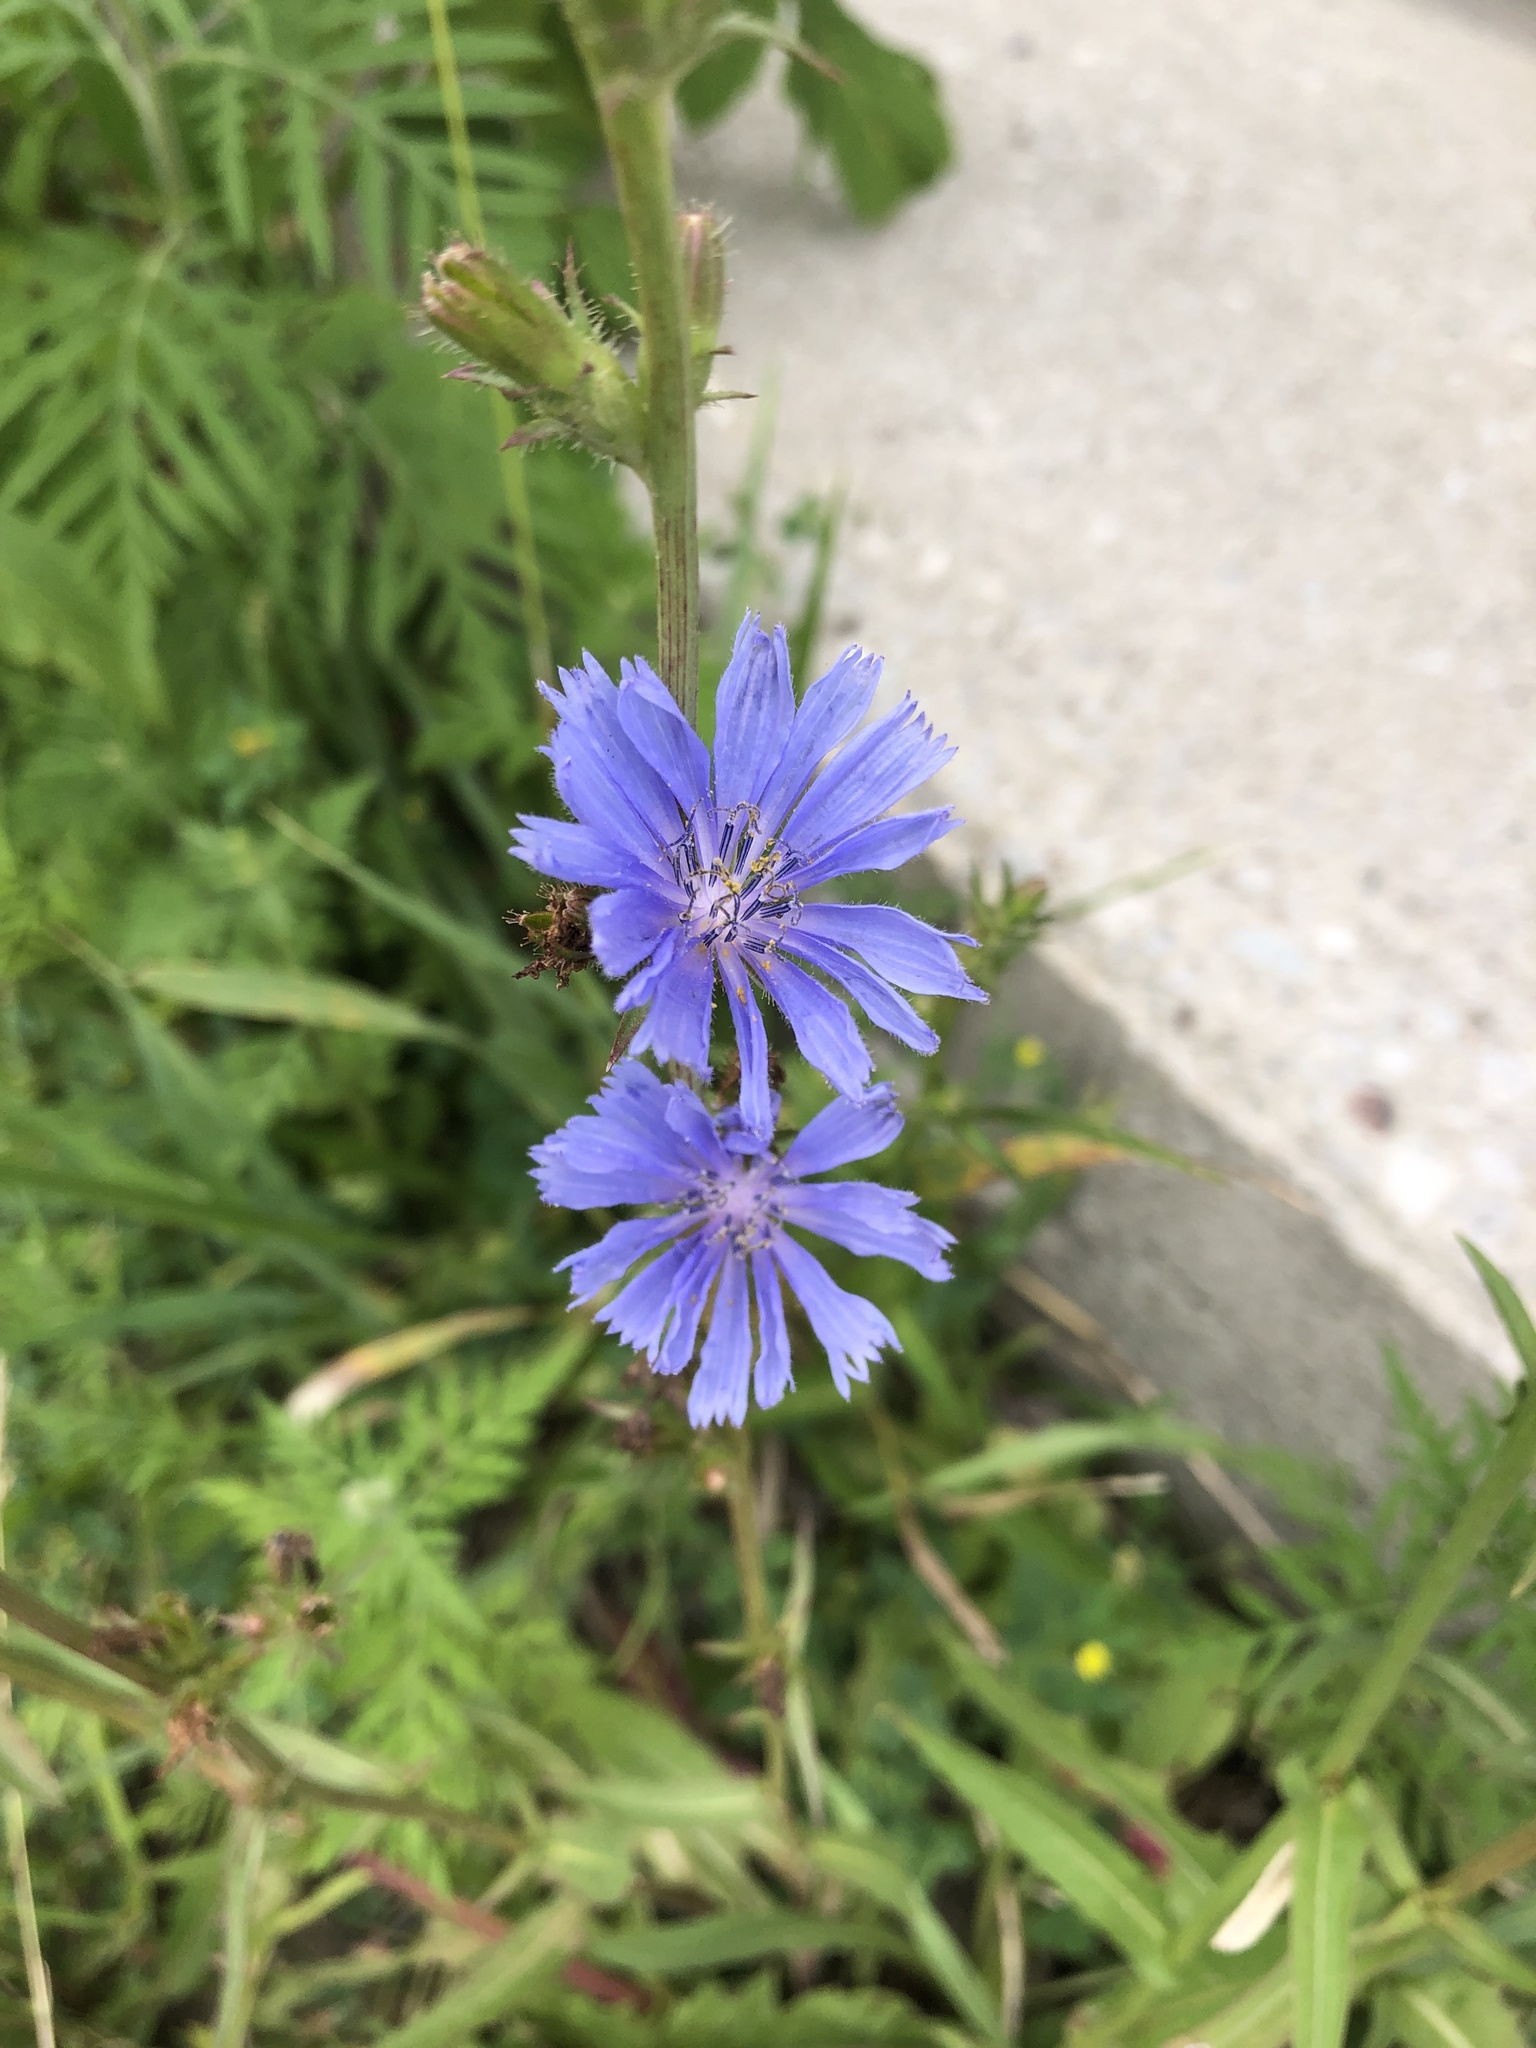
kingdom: Plantae
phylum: Tracheophyta
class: Magnoliopsida
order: Asterales
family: Asteraceae
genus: Cichorium
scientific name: Cichorium intybus
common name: Chicory
